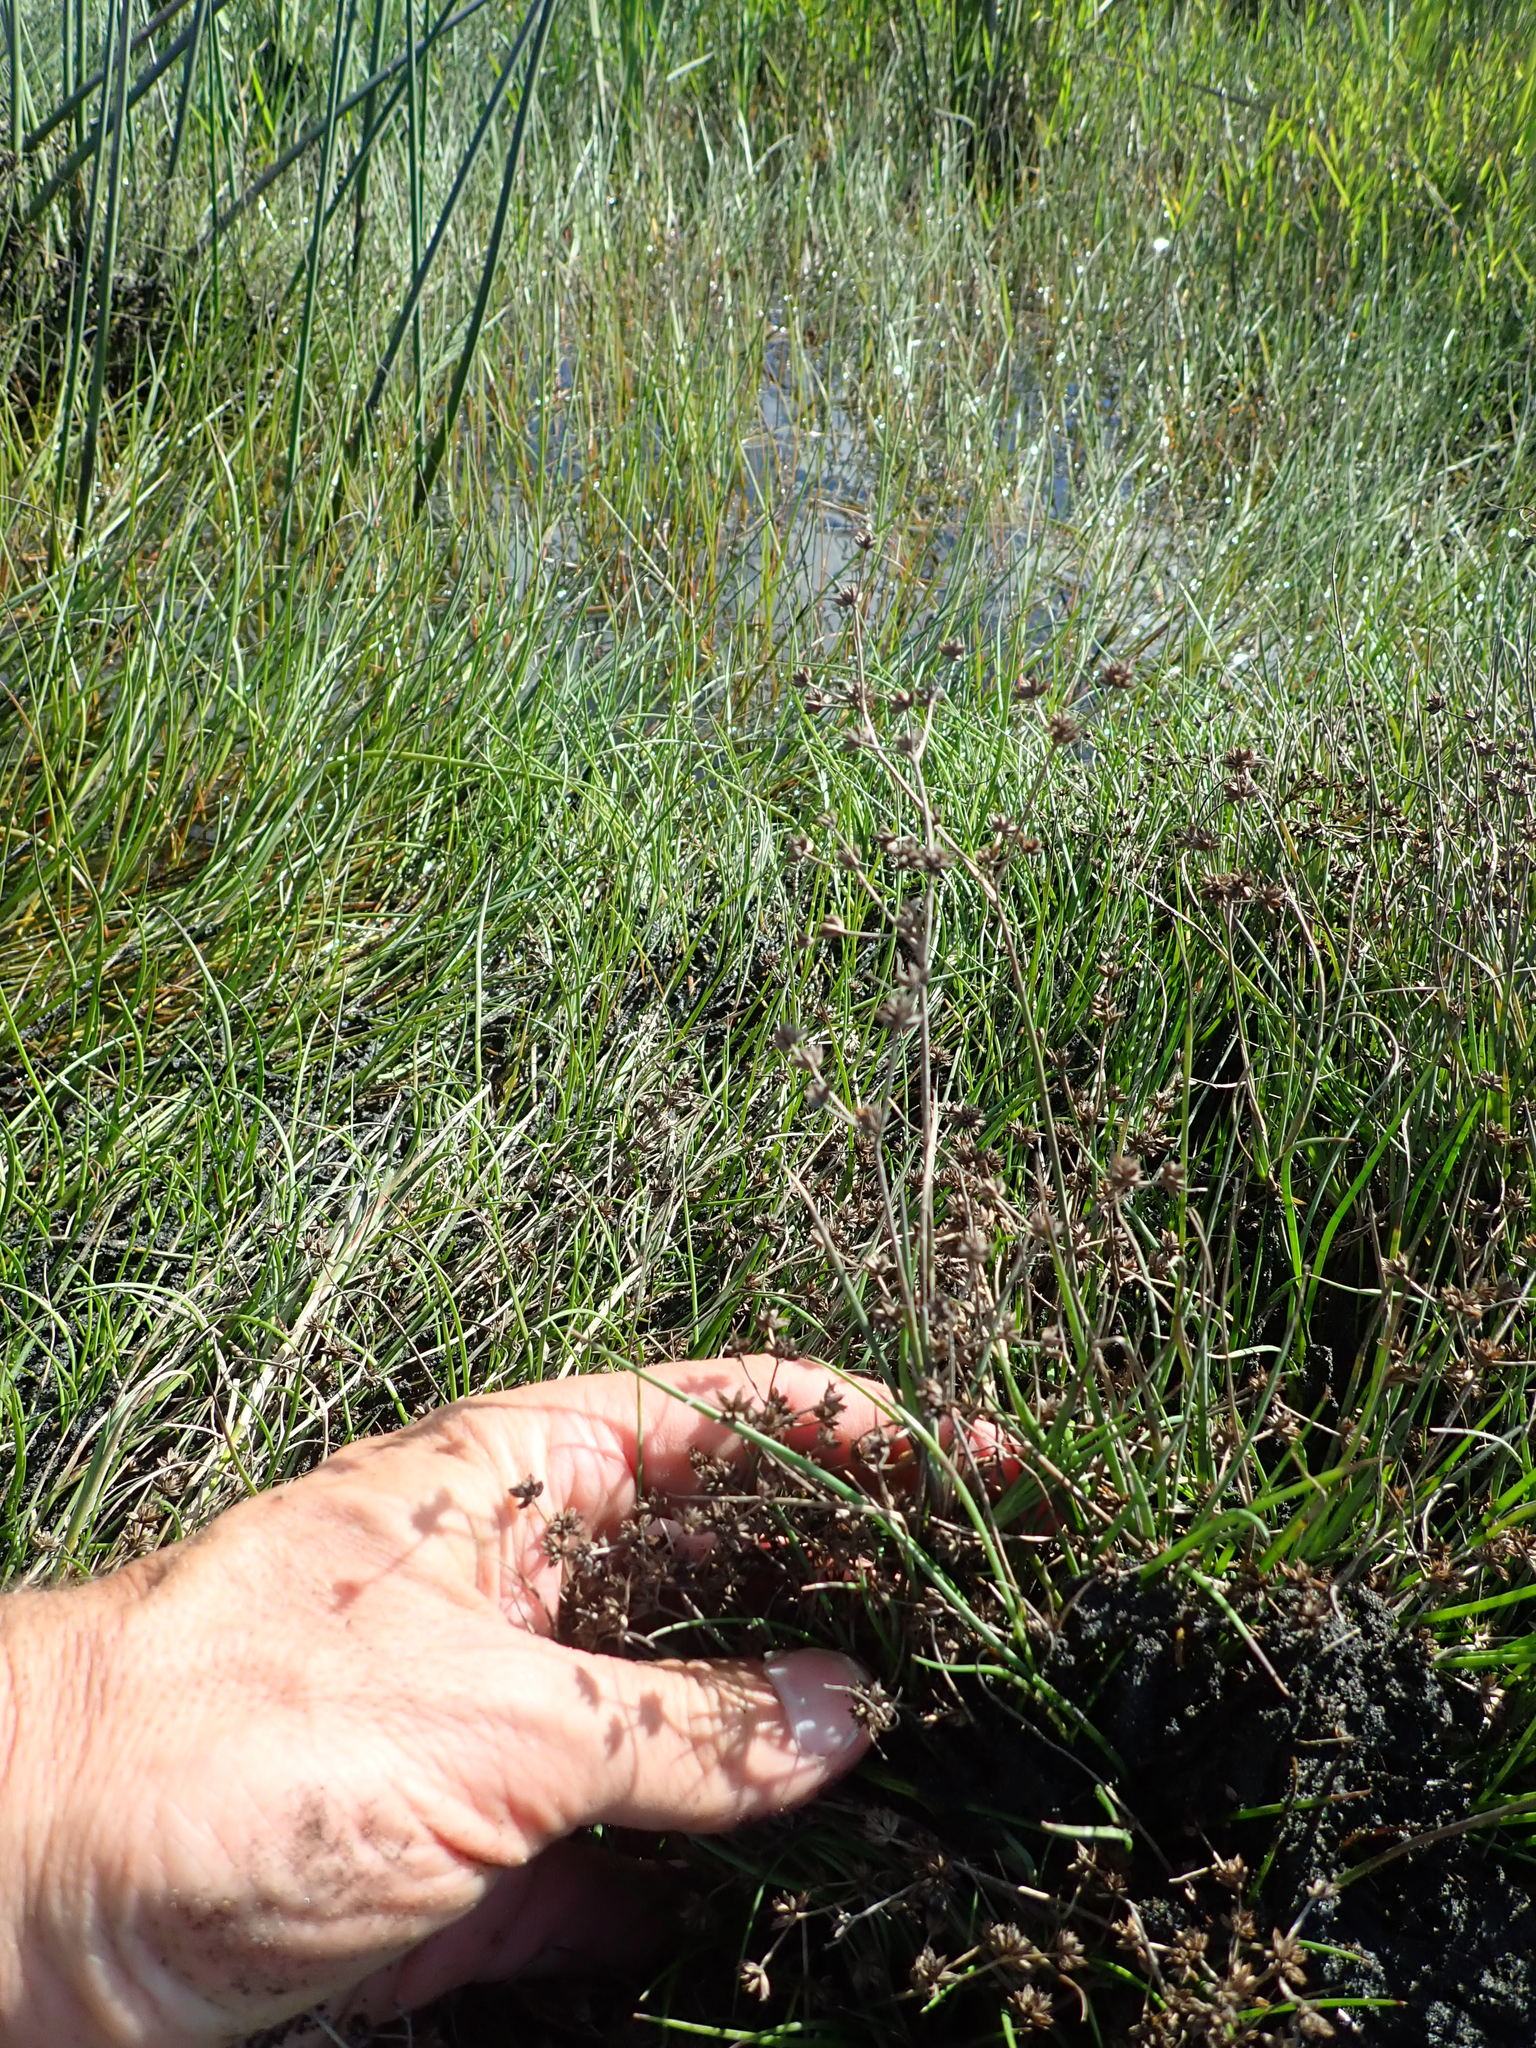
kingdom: Plantae
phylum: Tracheophyta
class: Liliopsida
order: Poales
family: Juncaceae
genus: Juncus
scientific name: Juncus articulatus
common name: Jointed rush
